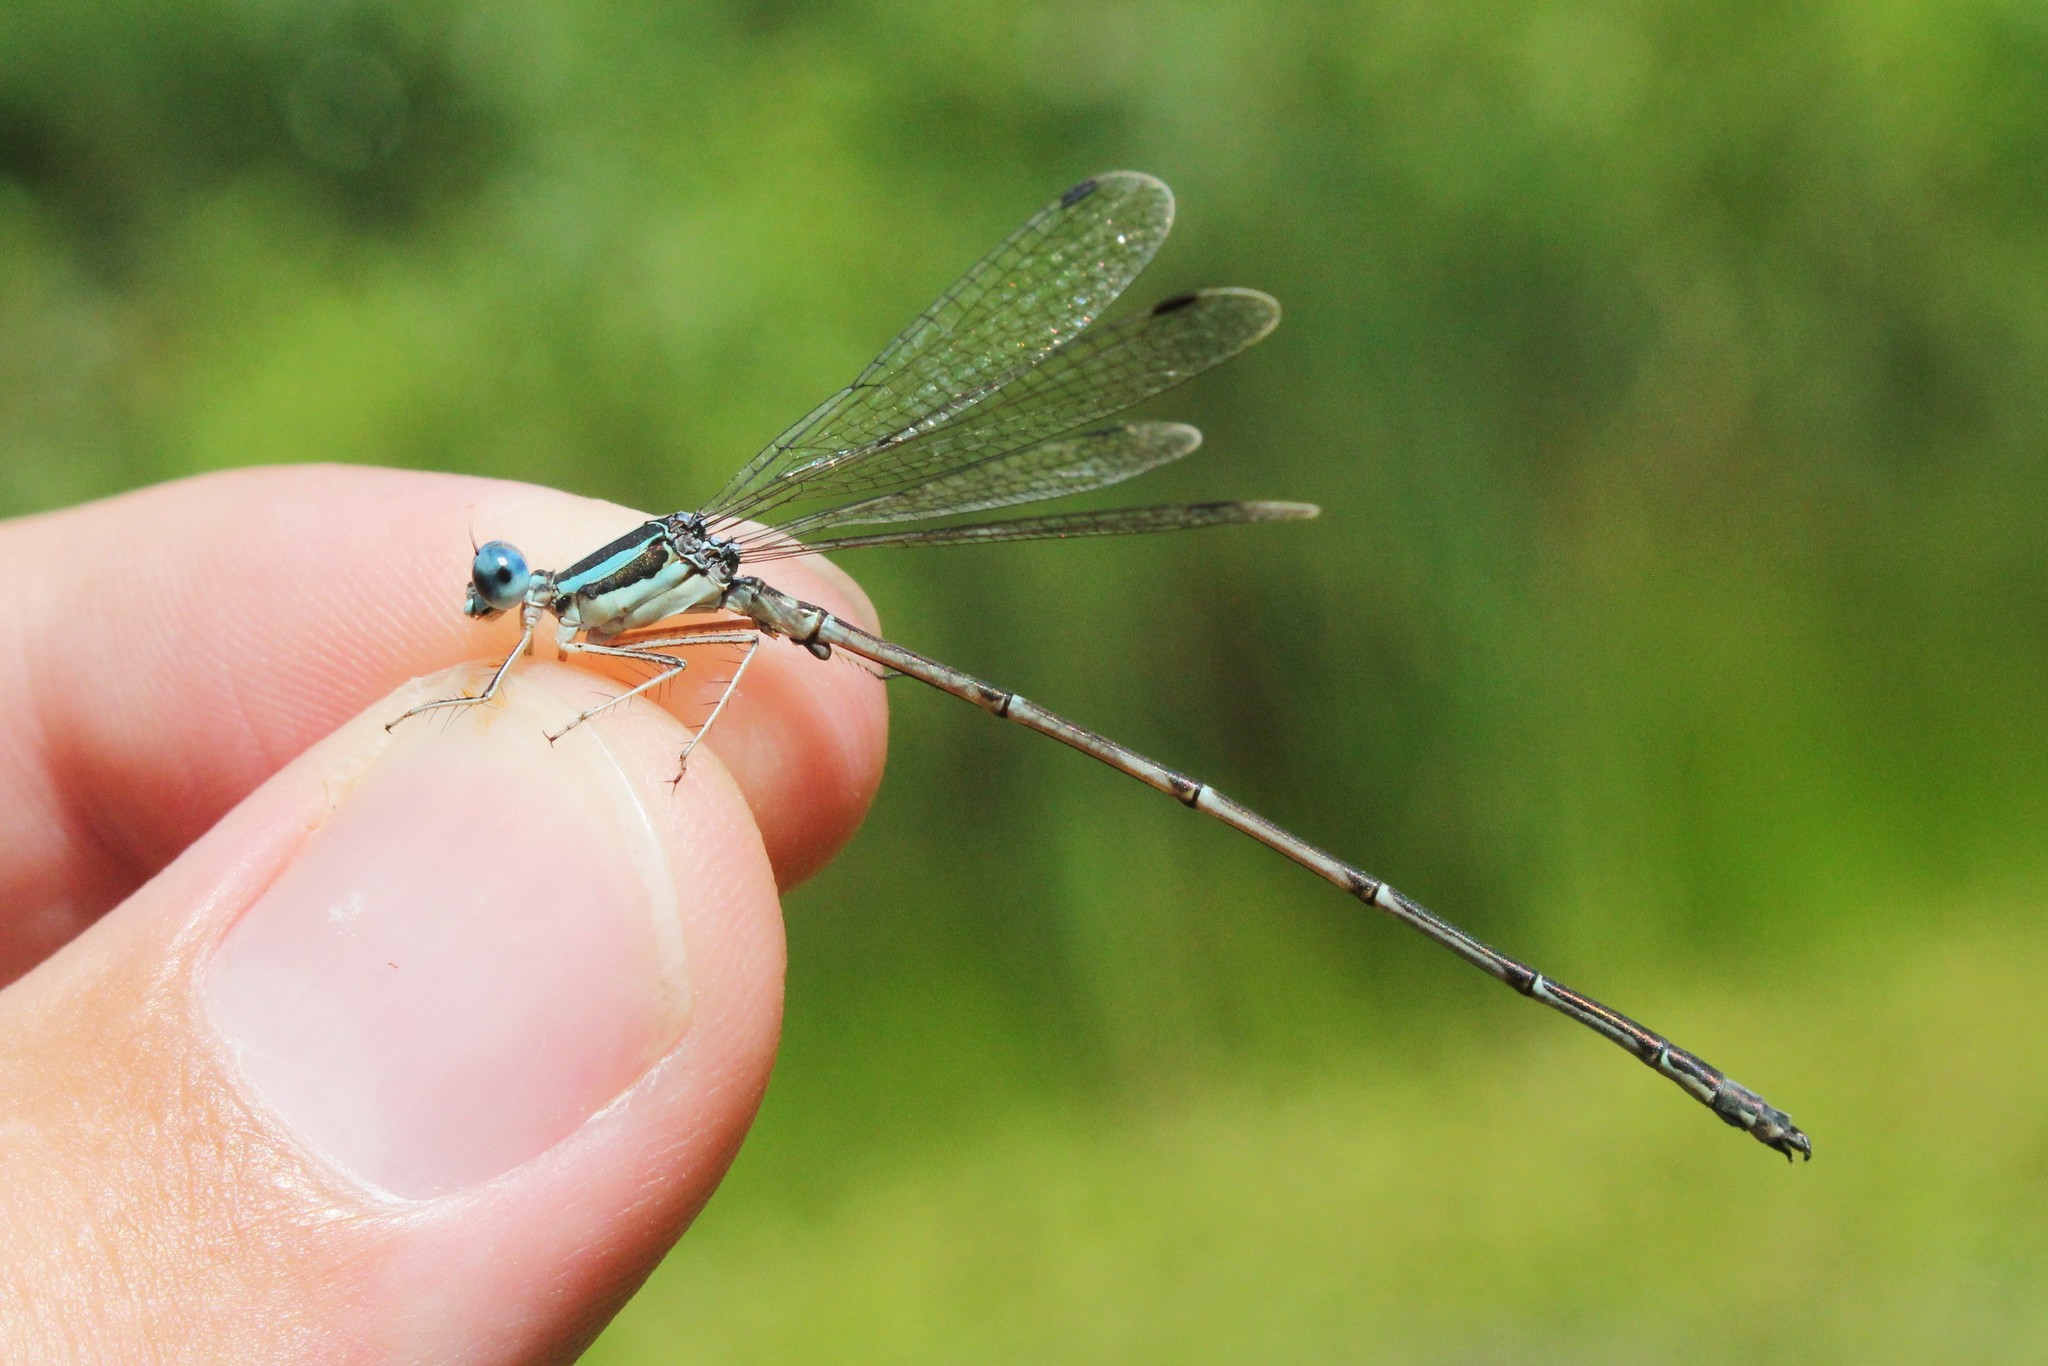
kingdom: Animalia
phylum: Arthropoda
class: Insecta
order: Odonata
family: Lestidae
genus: Lestes
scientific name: Lestes rectangularis
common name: Slender spreadwing
